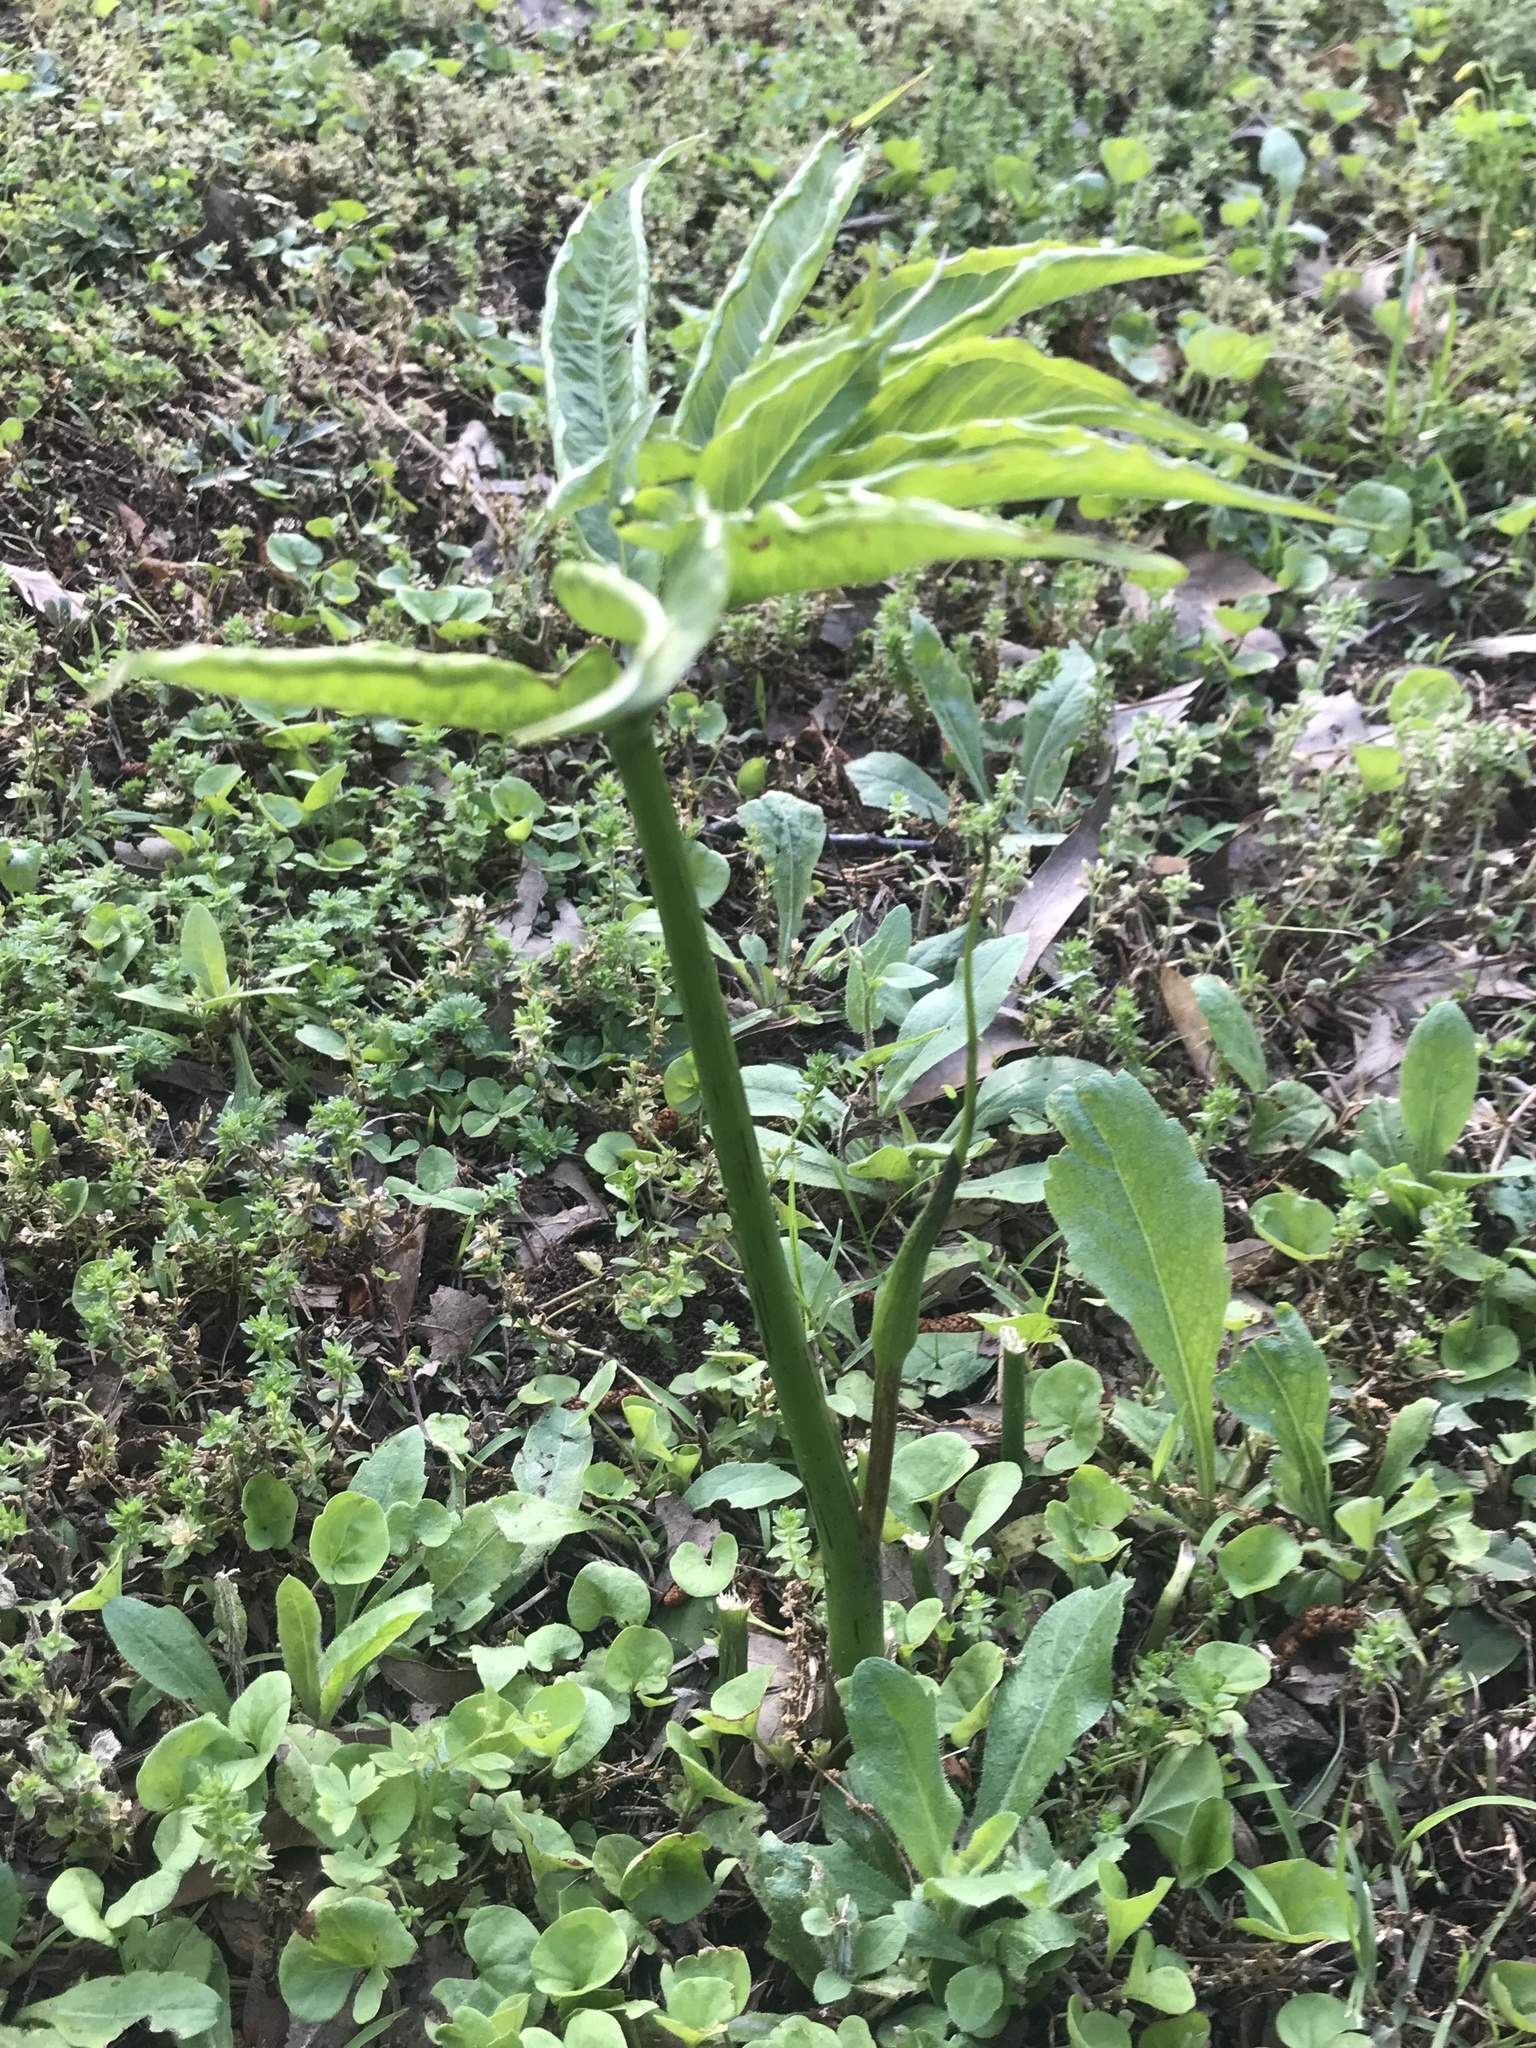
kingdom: Plantae
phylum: Tracheophyta
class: Liliopsida
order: Alismatales
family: Araceae
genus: Arisaema
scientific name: Arisaema dracontium
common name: Dragon-arum
